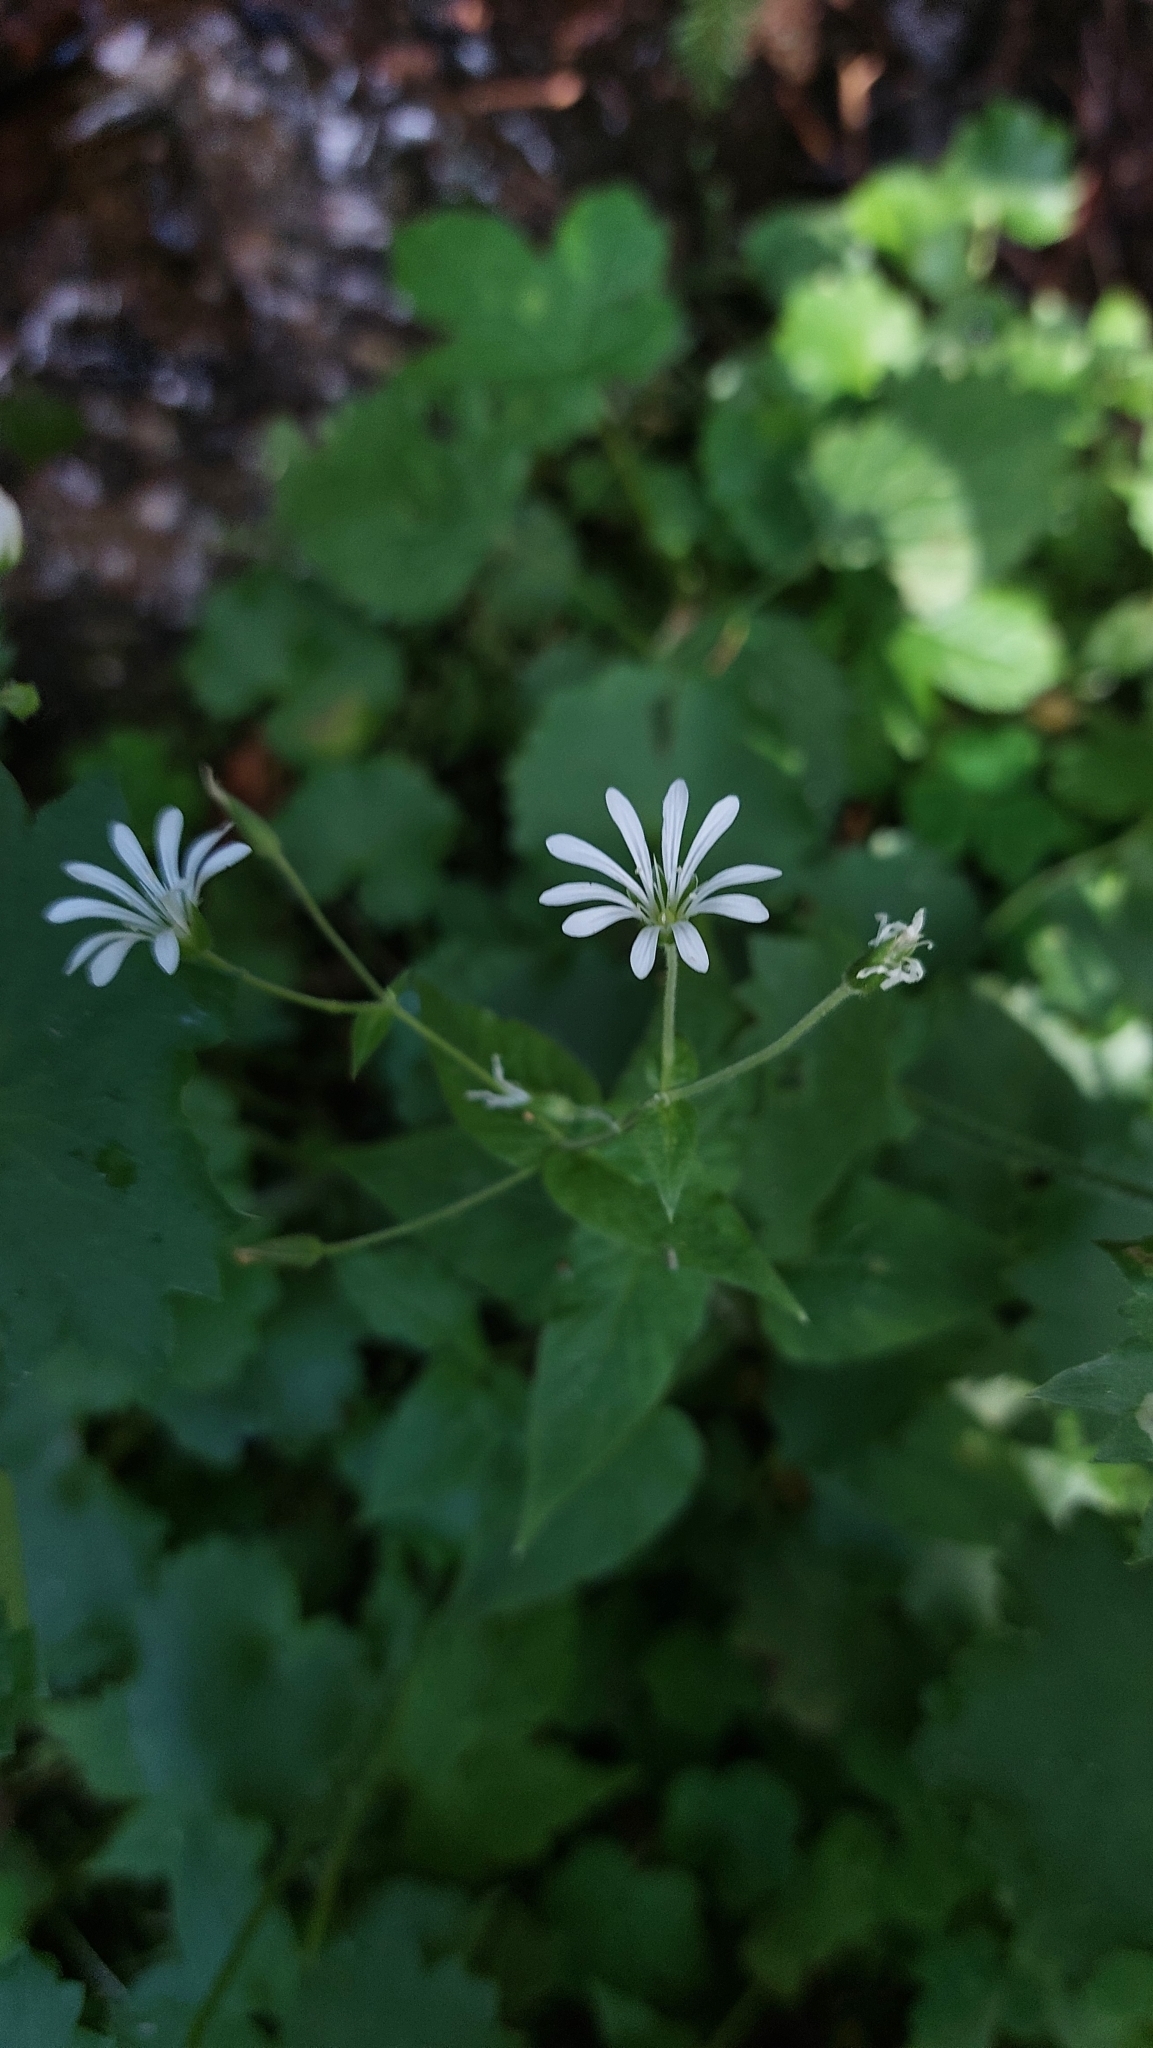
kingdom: Plantae
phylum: Tracheophyta
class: Magnoliopsida
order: Caryophyllales
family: Caryophyllaceae
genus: Stellaria
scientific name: Stellaria nemorum
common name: Wood stitchwort
